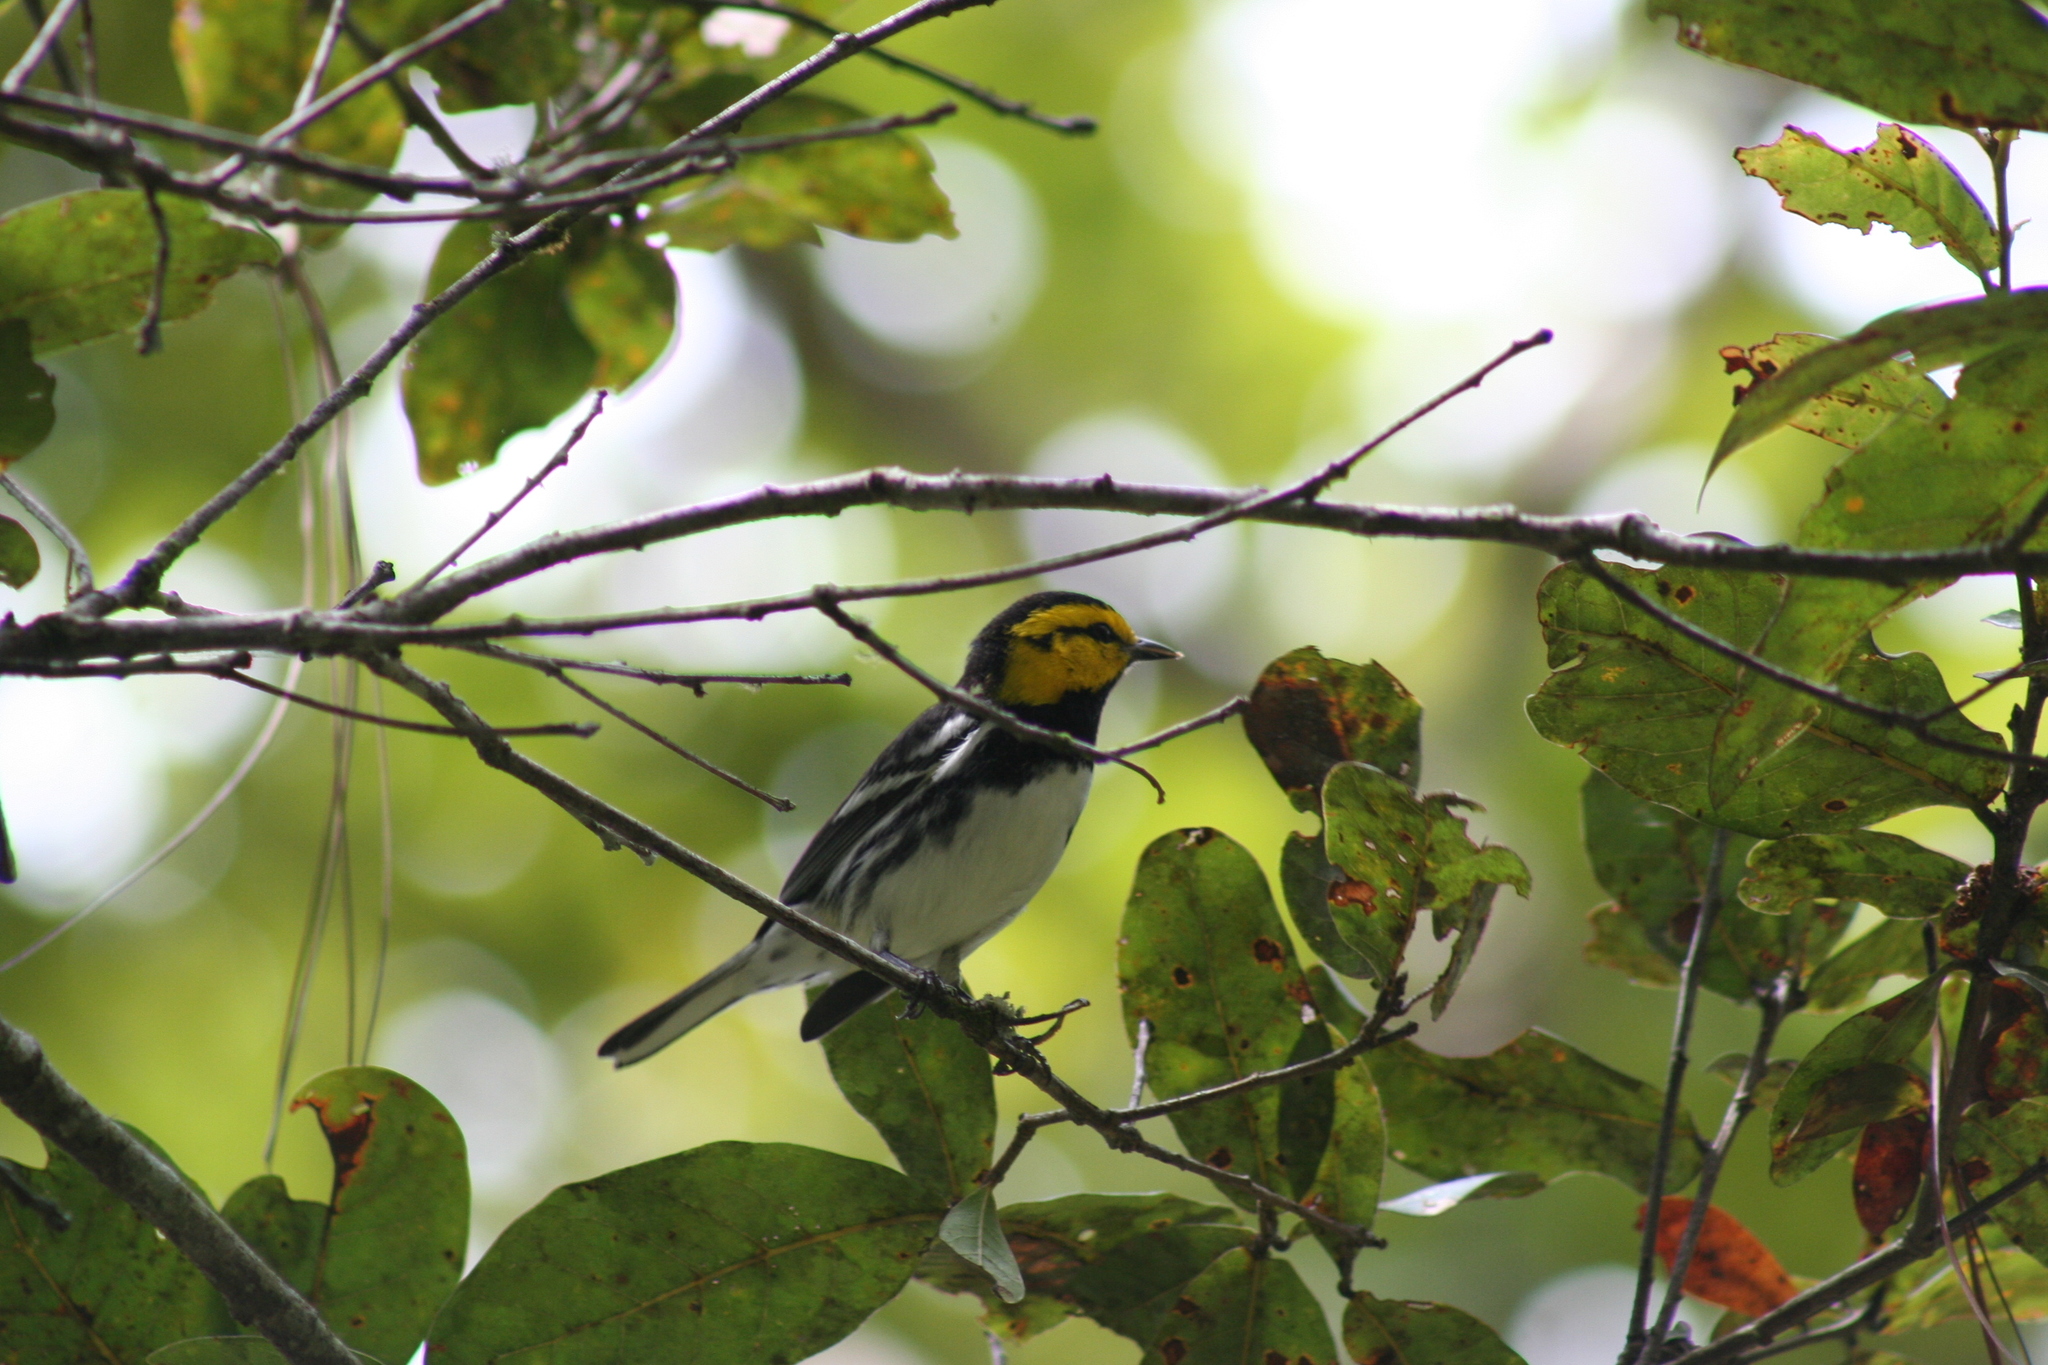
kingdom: Animalia
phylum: Chordata
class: Aves
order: Passeriformes
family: Parulidae
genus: Setophaga
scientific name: Setophaga chrysoparia
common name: Golden-cheeked warbler
